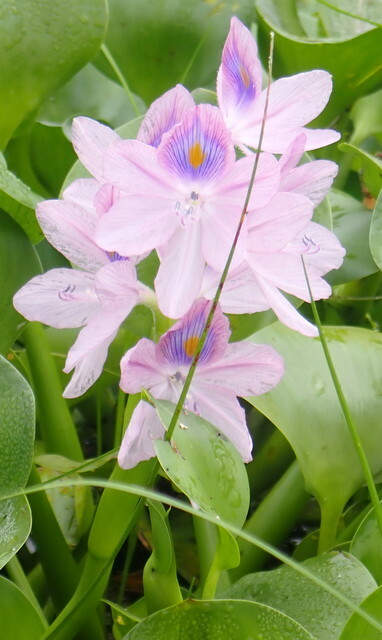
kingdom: Plantae
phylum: Tracheophyta
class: Liliopsida
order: Commelinales
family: Pontederiaceae
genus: Pontederia
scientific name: Pontederia crassipes
